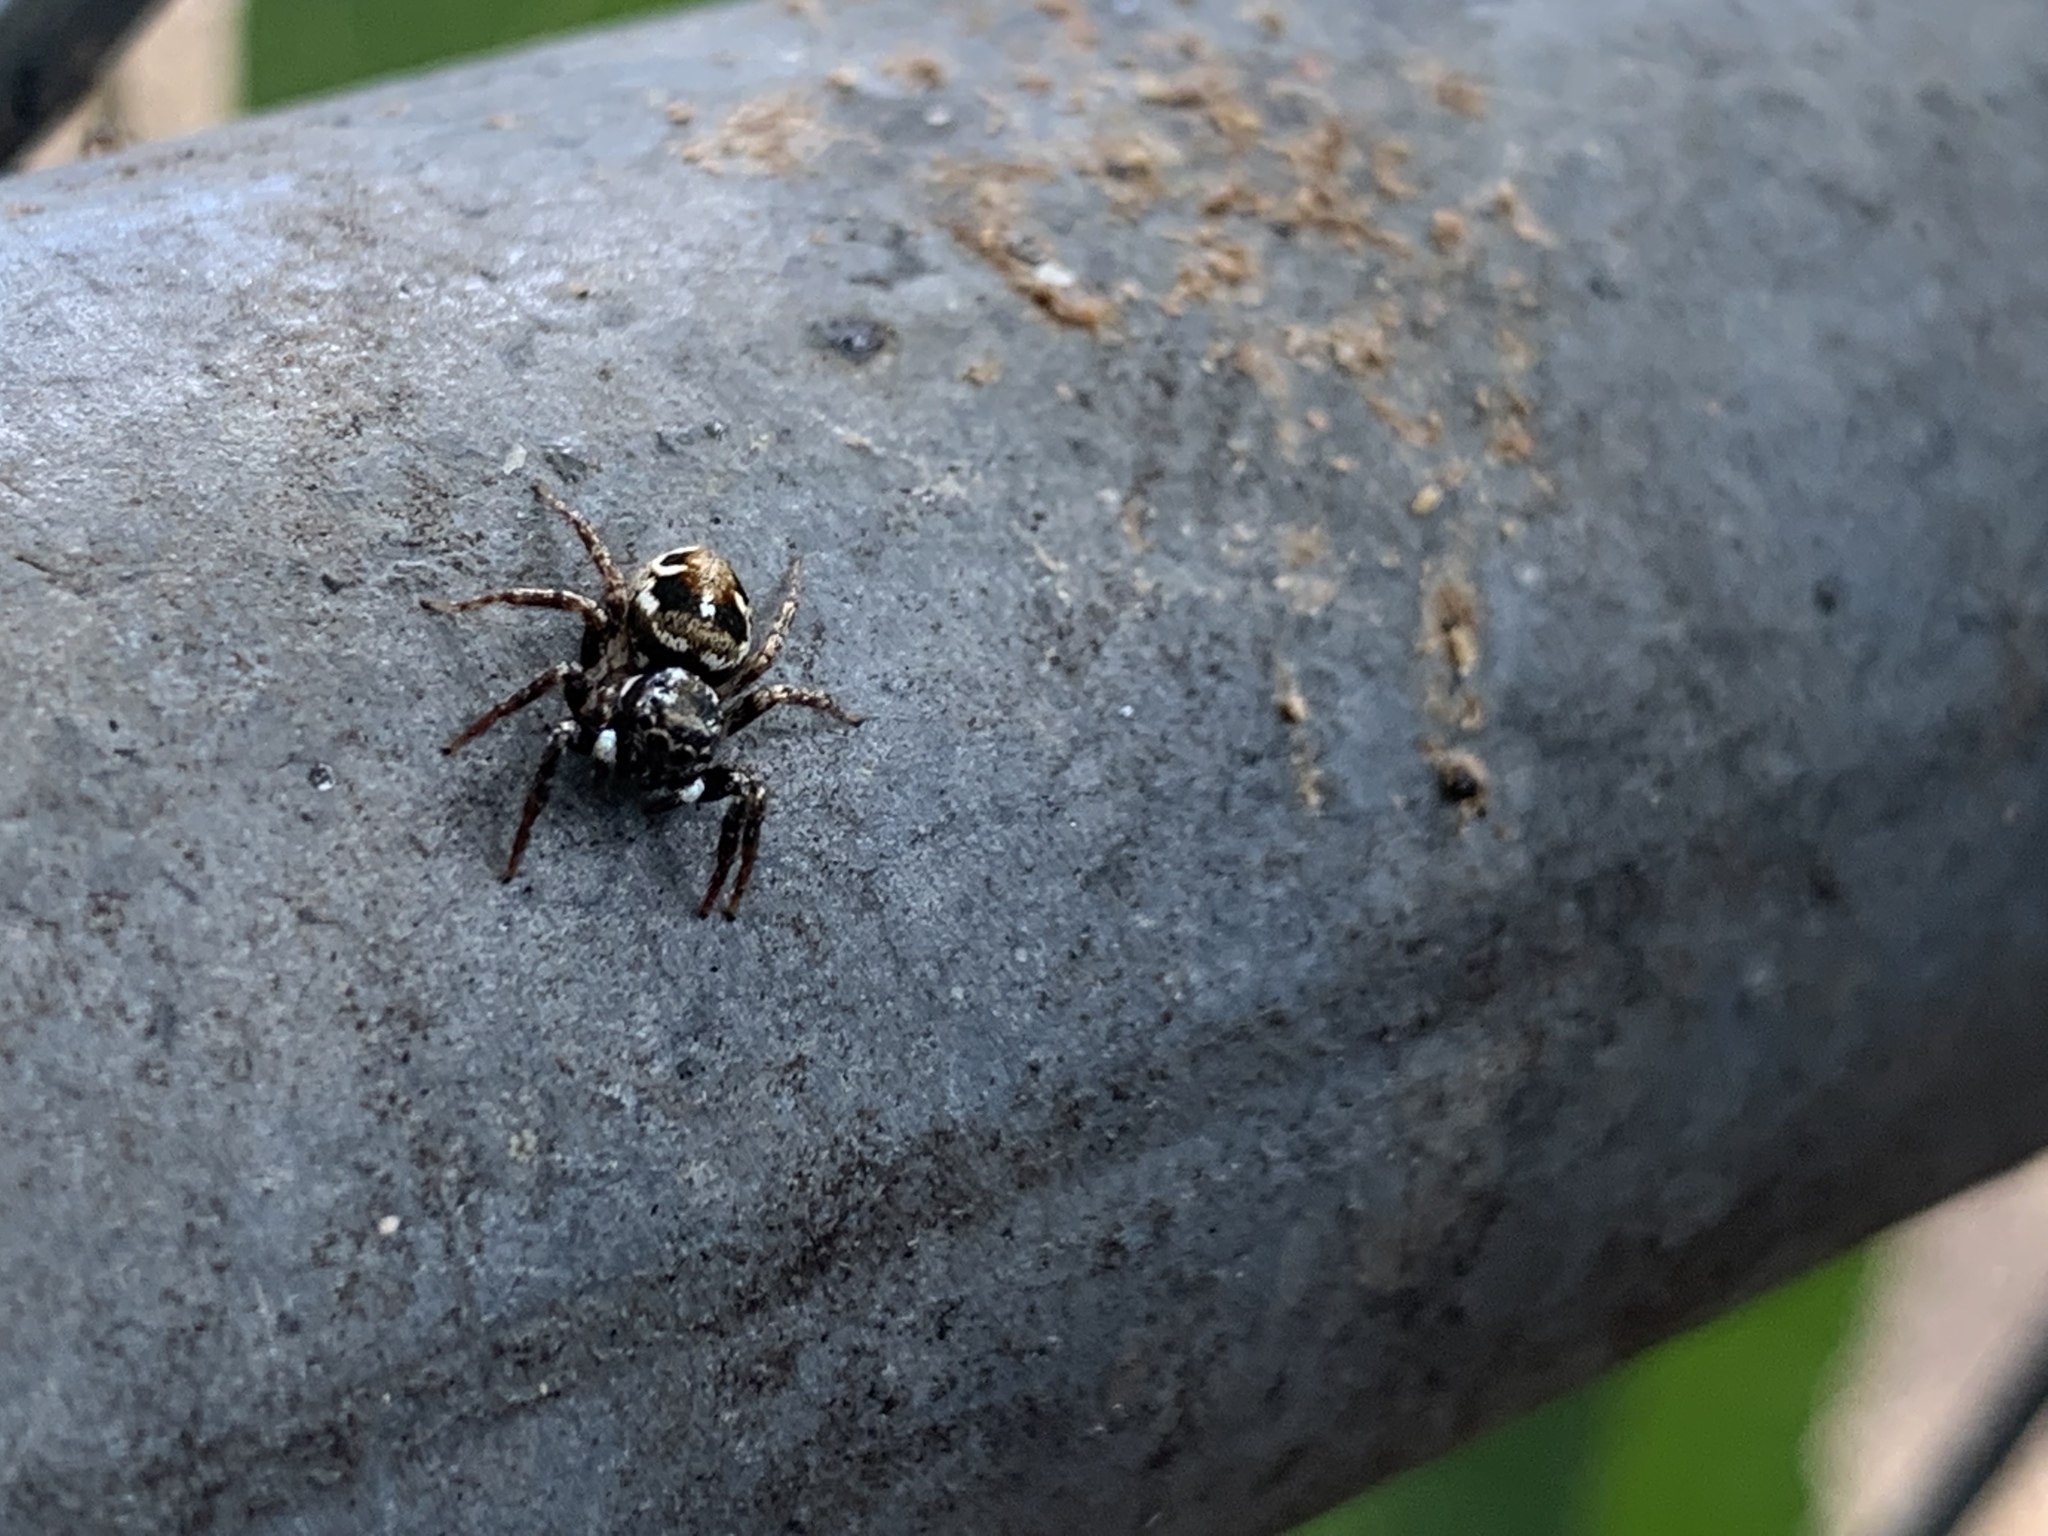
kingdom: Animalia
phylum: Arthropoda
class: Arachnida
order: Araneae
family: Salticidae
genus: Anasaitis
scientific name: Anasaitis canosa
